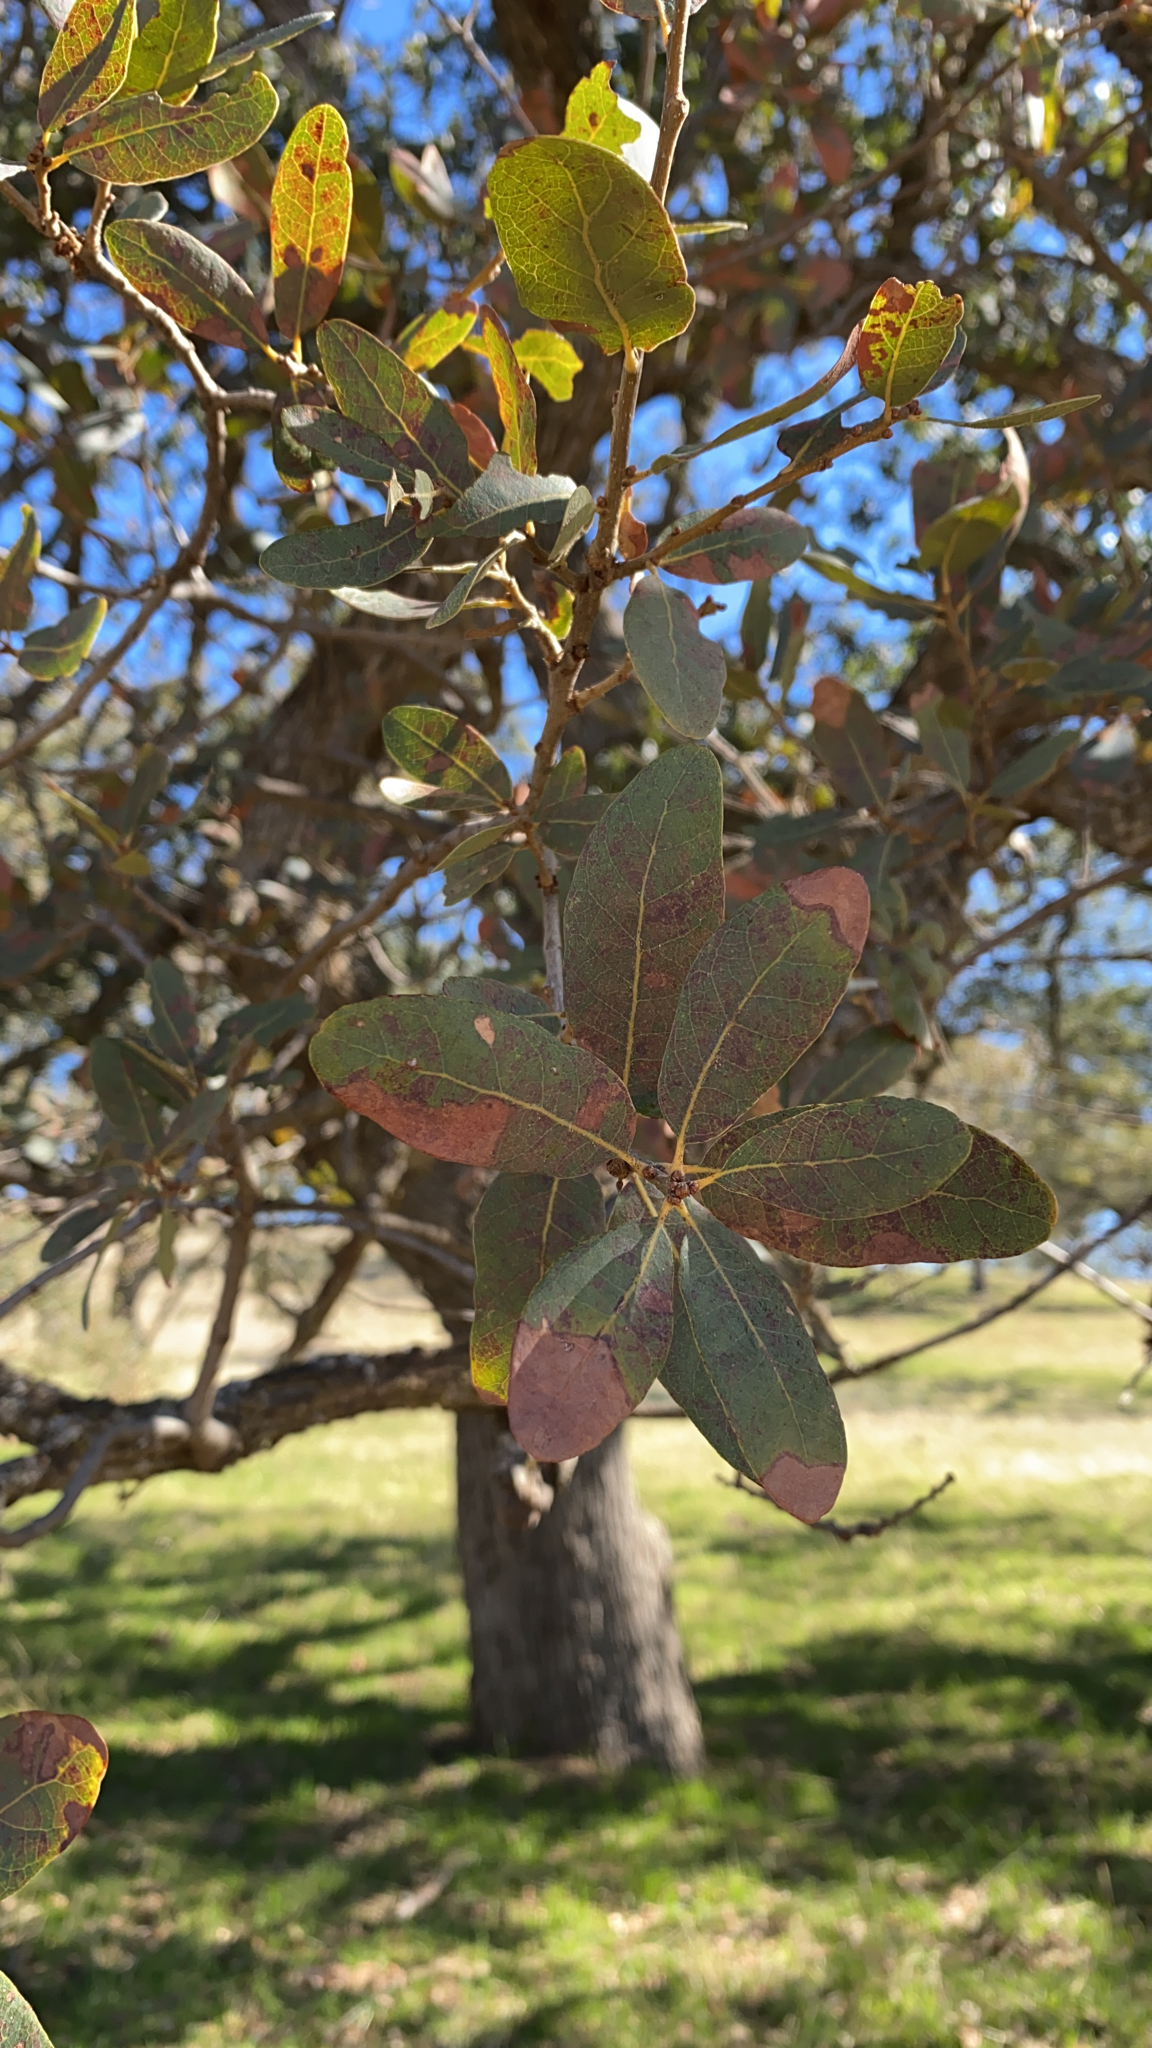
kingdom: Plantae
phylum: Tracheophyta
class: Magnoliopsida
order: Fagales
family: Fagaceae
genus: Quercus
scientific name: Quercus engelmannii
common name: Engelmann oak
